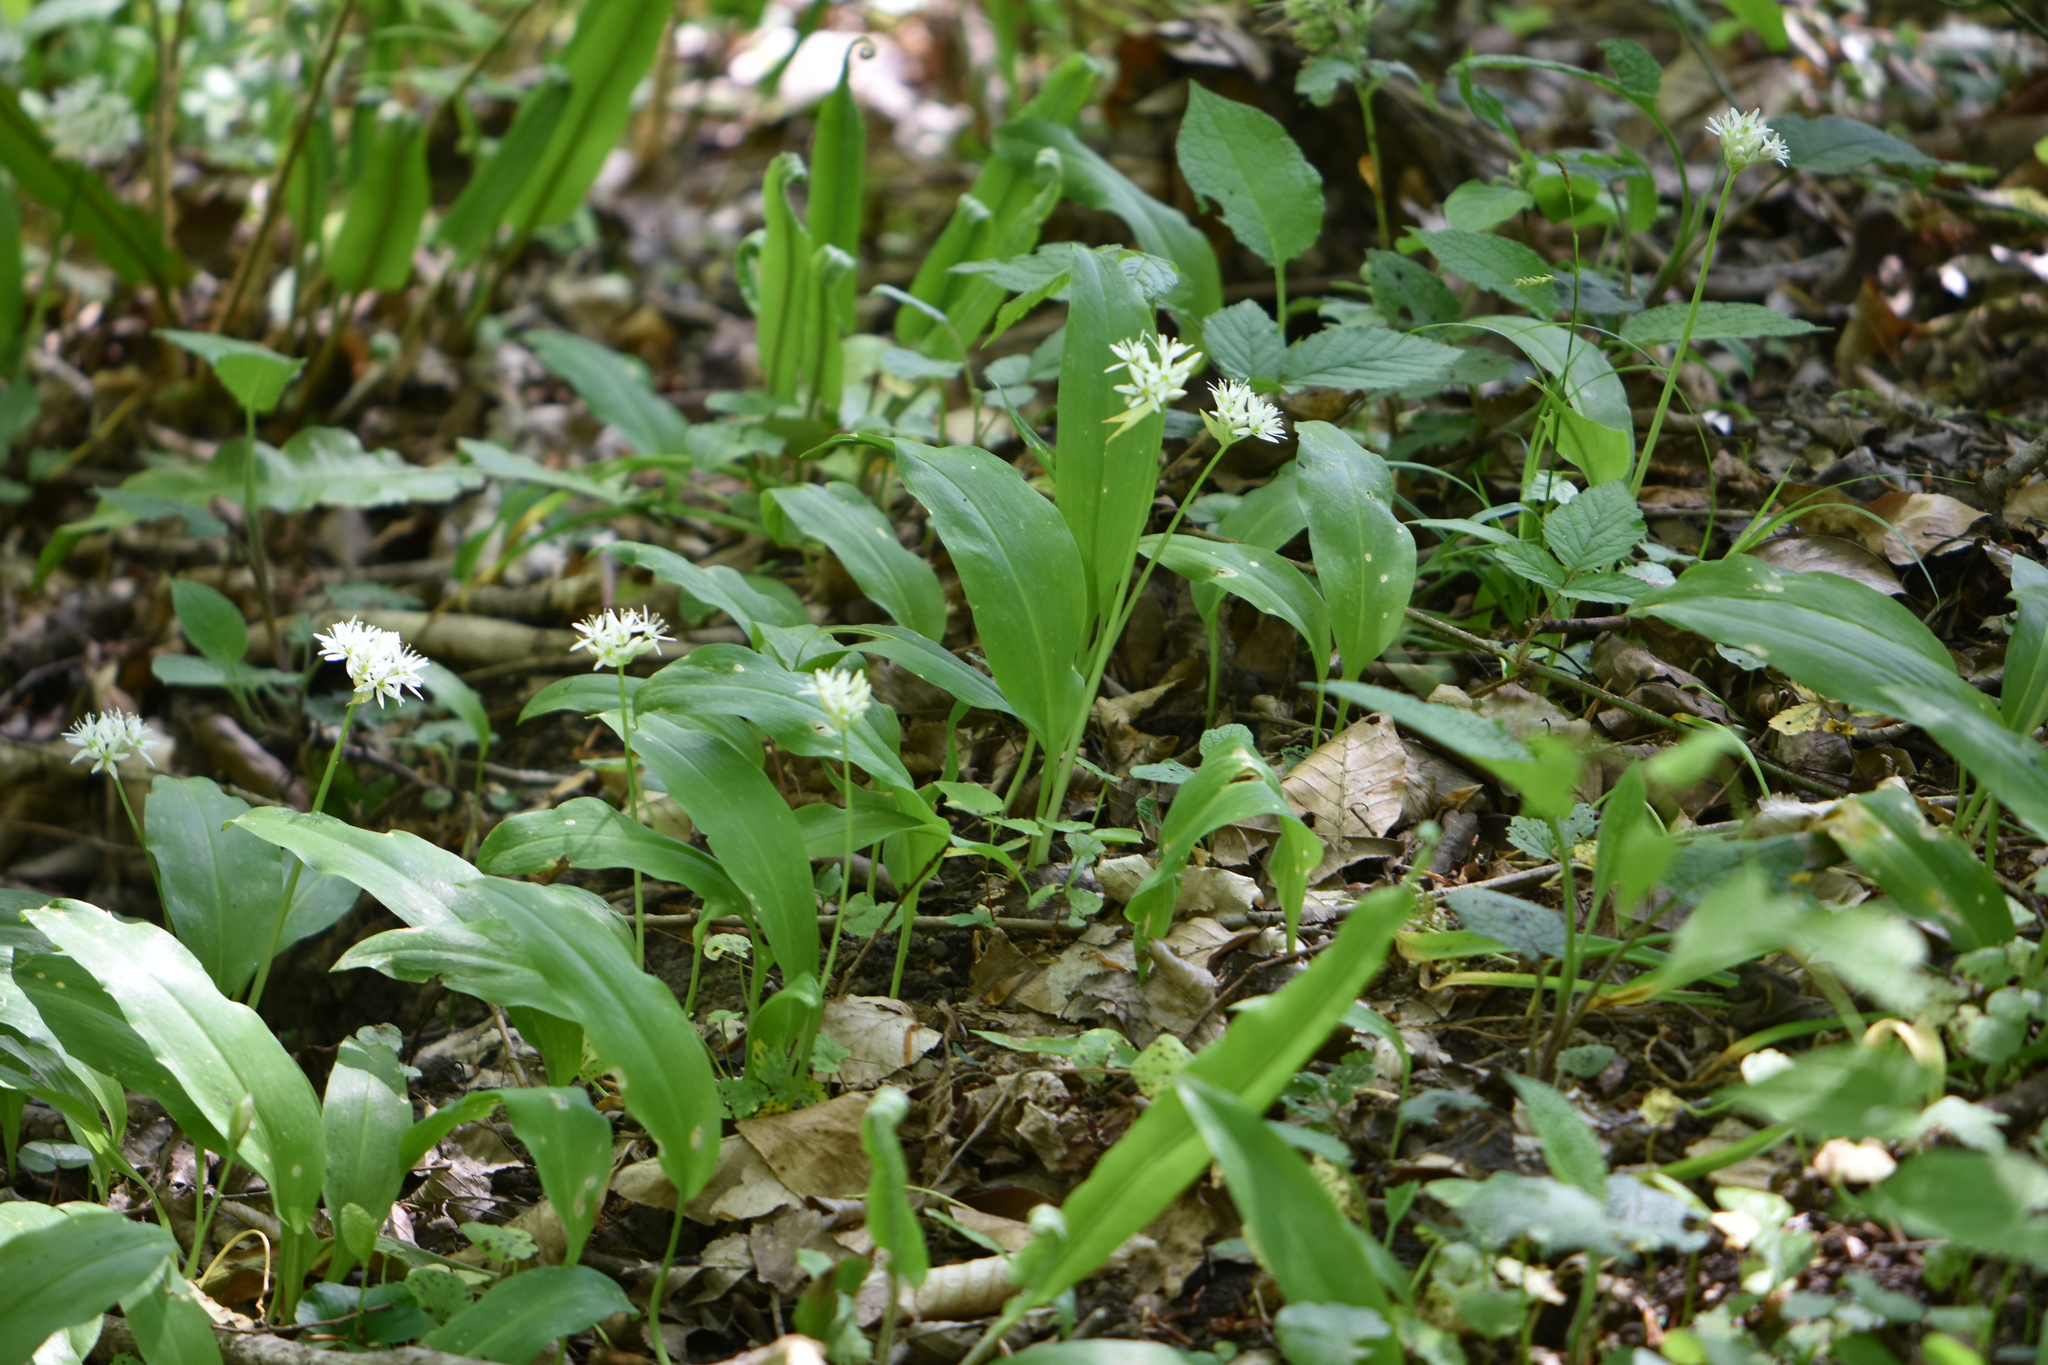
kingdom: Plantae
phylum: Tracheophyta
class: Liliopsida
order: Asparagales
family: Amaryllidaceae
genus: Allium
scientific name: Allium ursinum
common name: Ramsons
